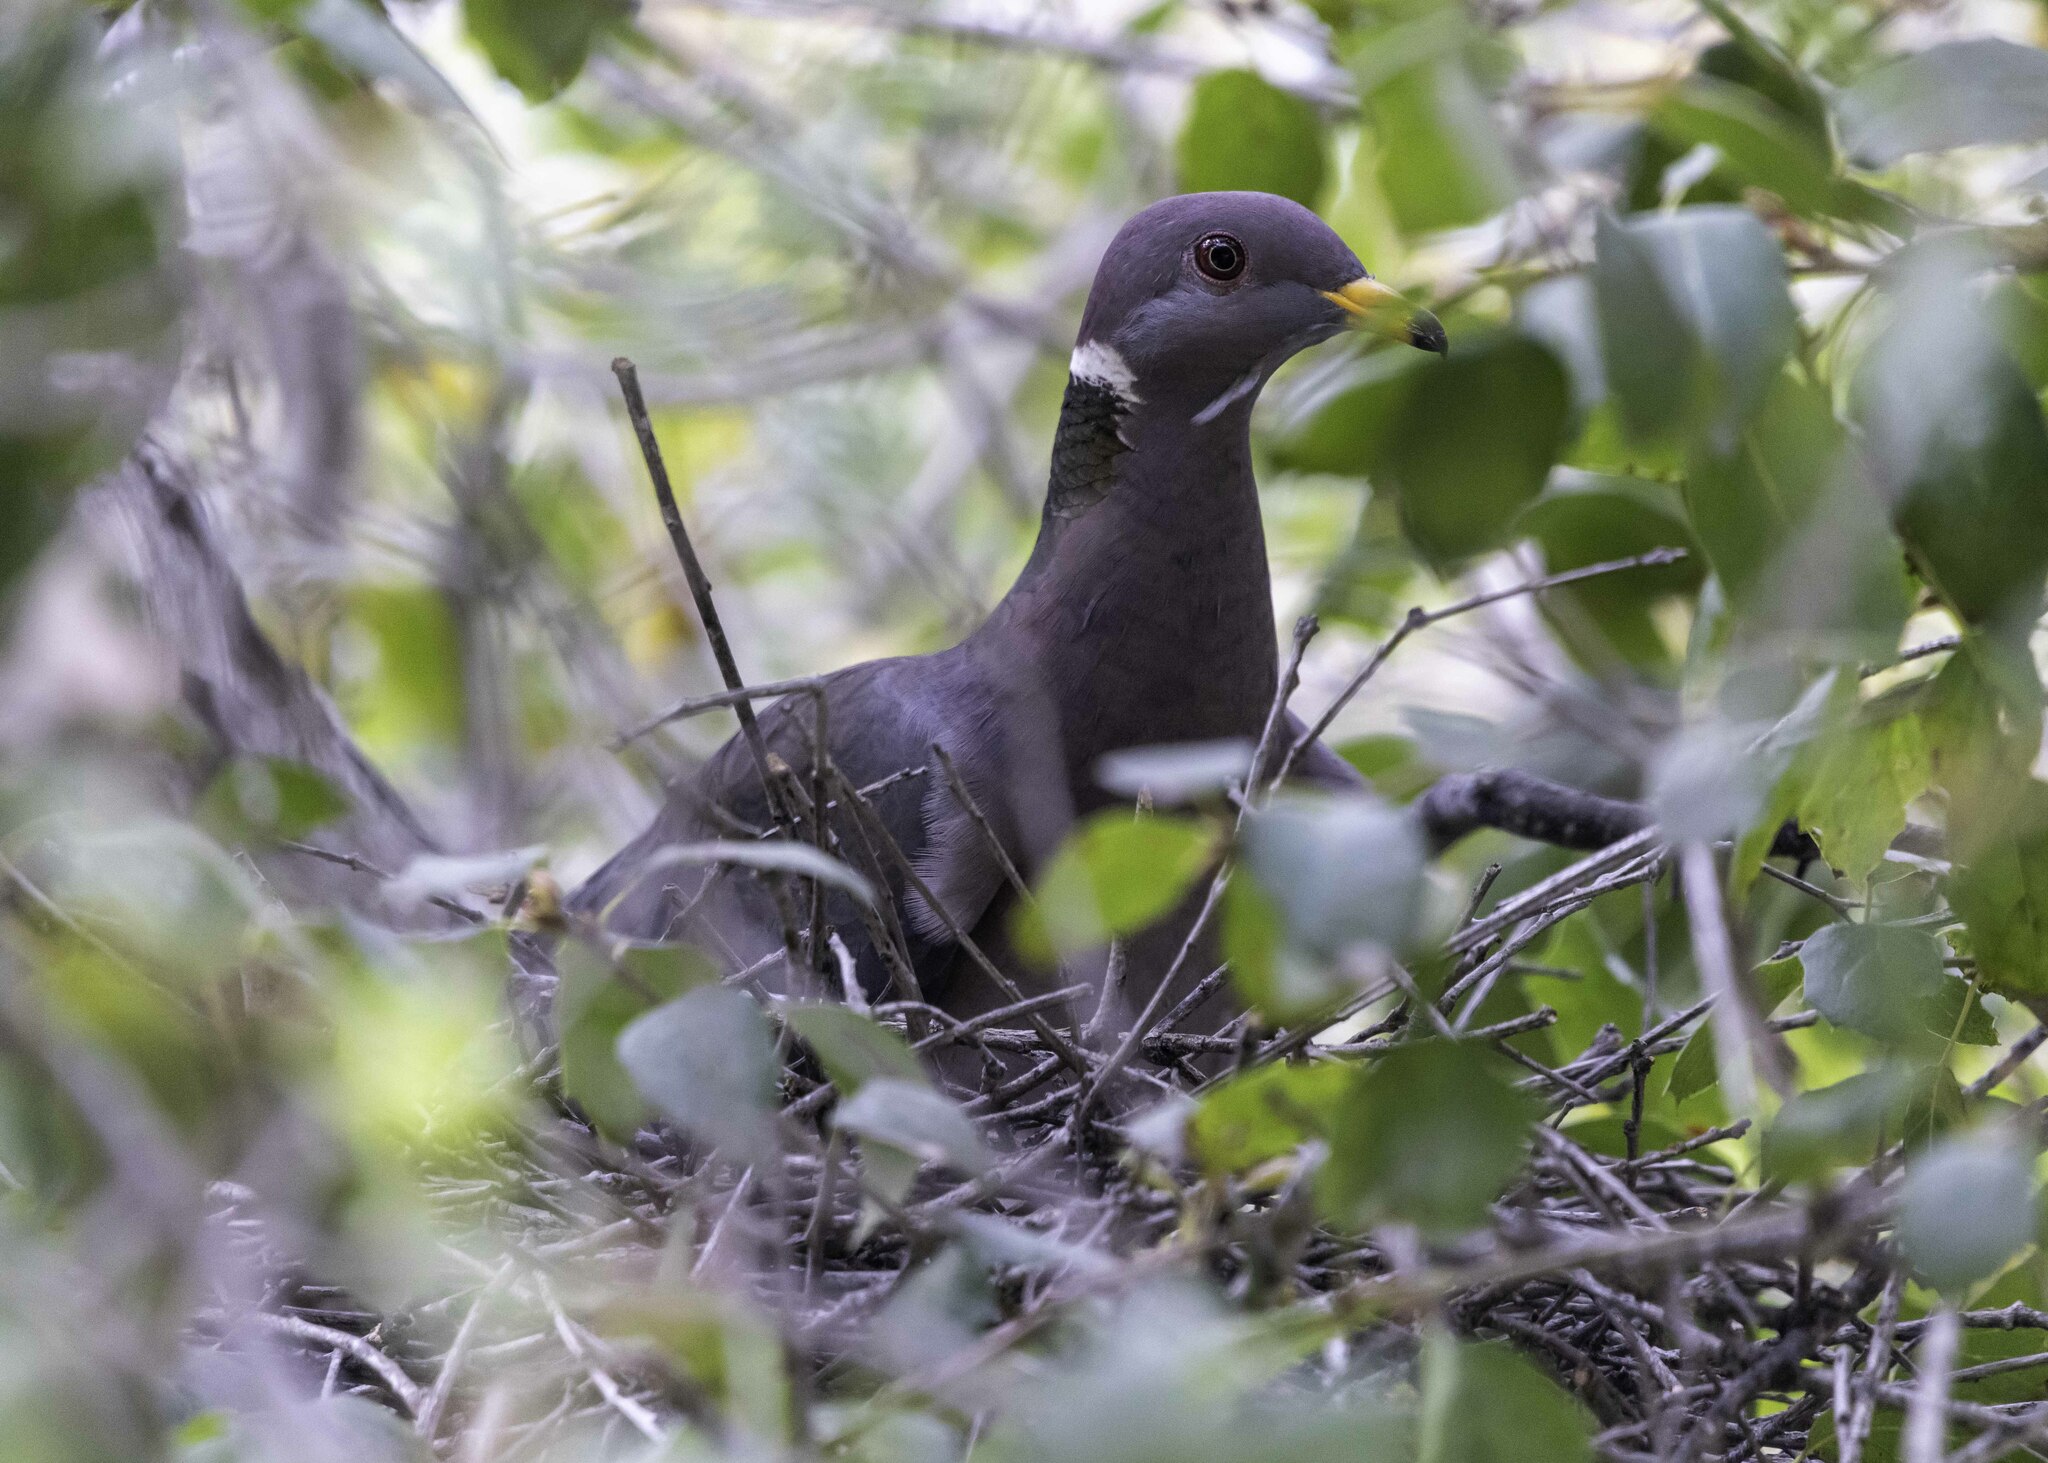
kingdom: Animalia
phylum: Chordata
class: Aves
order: Columbiformes
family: Columbidae
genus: Patagioenas
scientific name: Patagioenas fasciata
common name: Band-tailed pigeon
